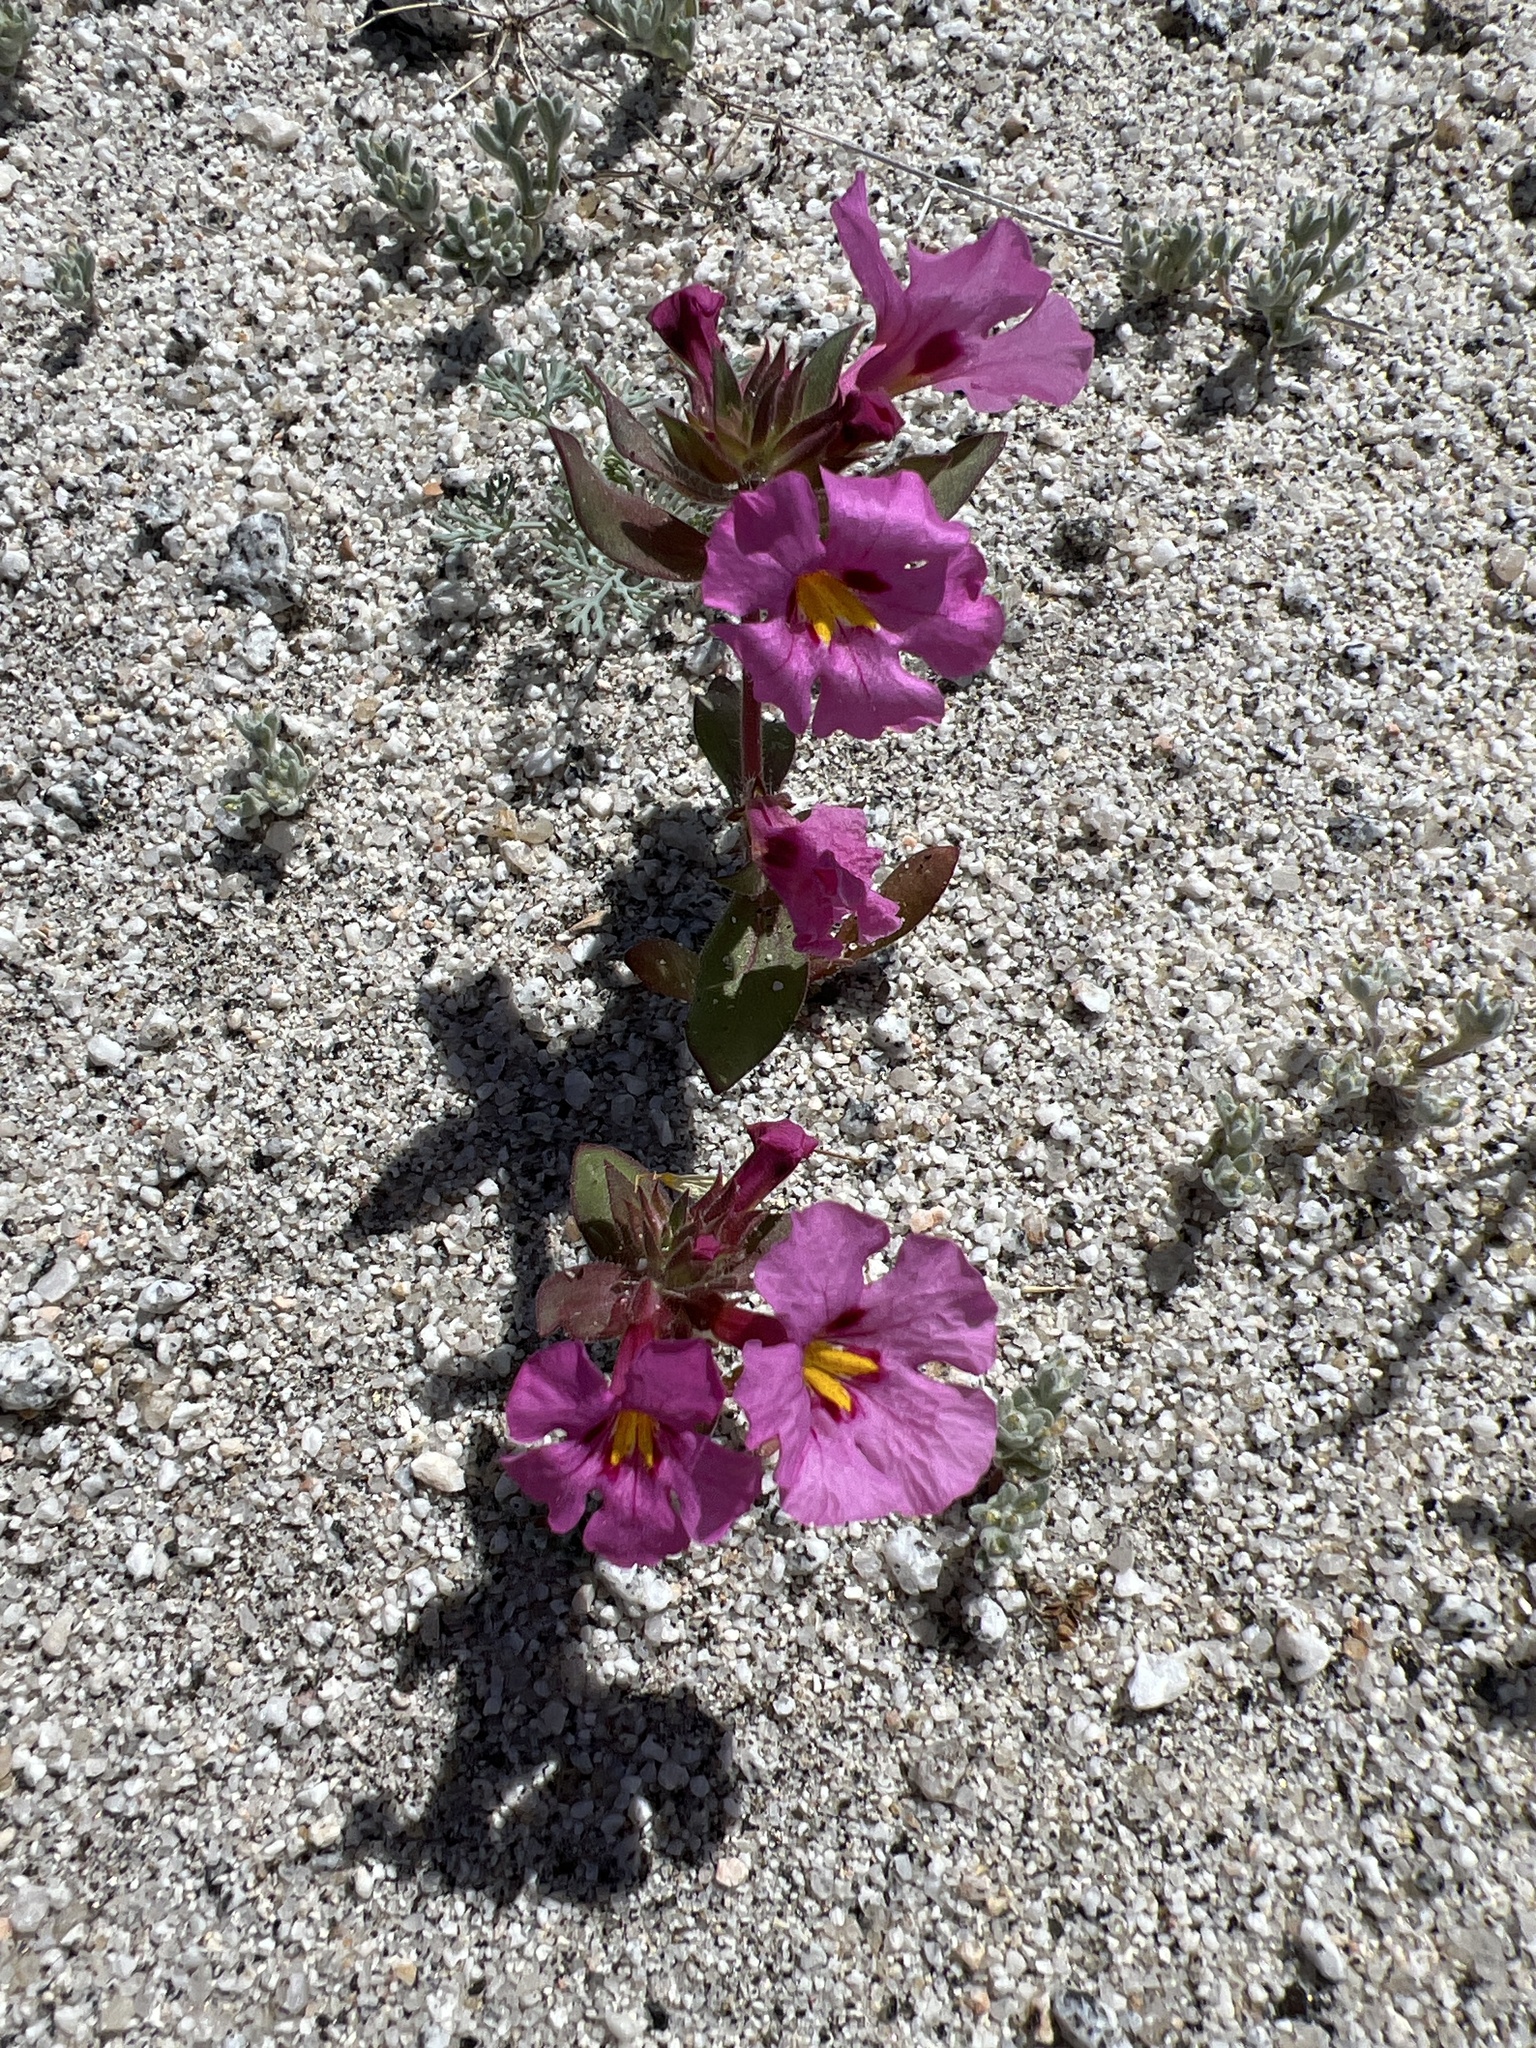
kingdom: Plantae
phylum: Tracheophyta
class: Magnoliopsida
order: Lamiales
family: Phrymaceae
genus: Diplacus
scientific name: Diplacus bigelovii
